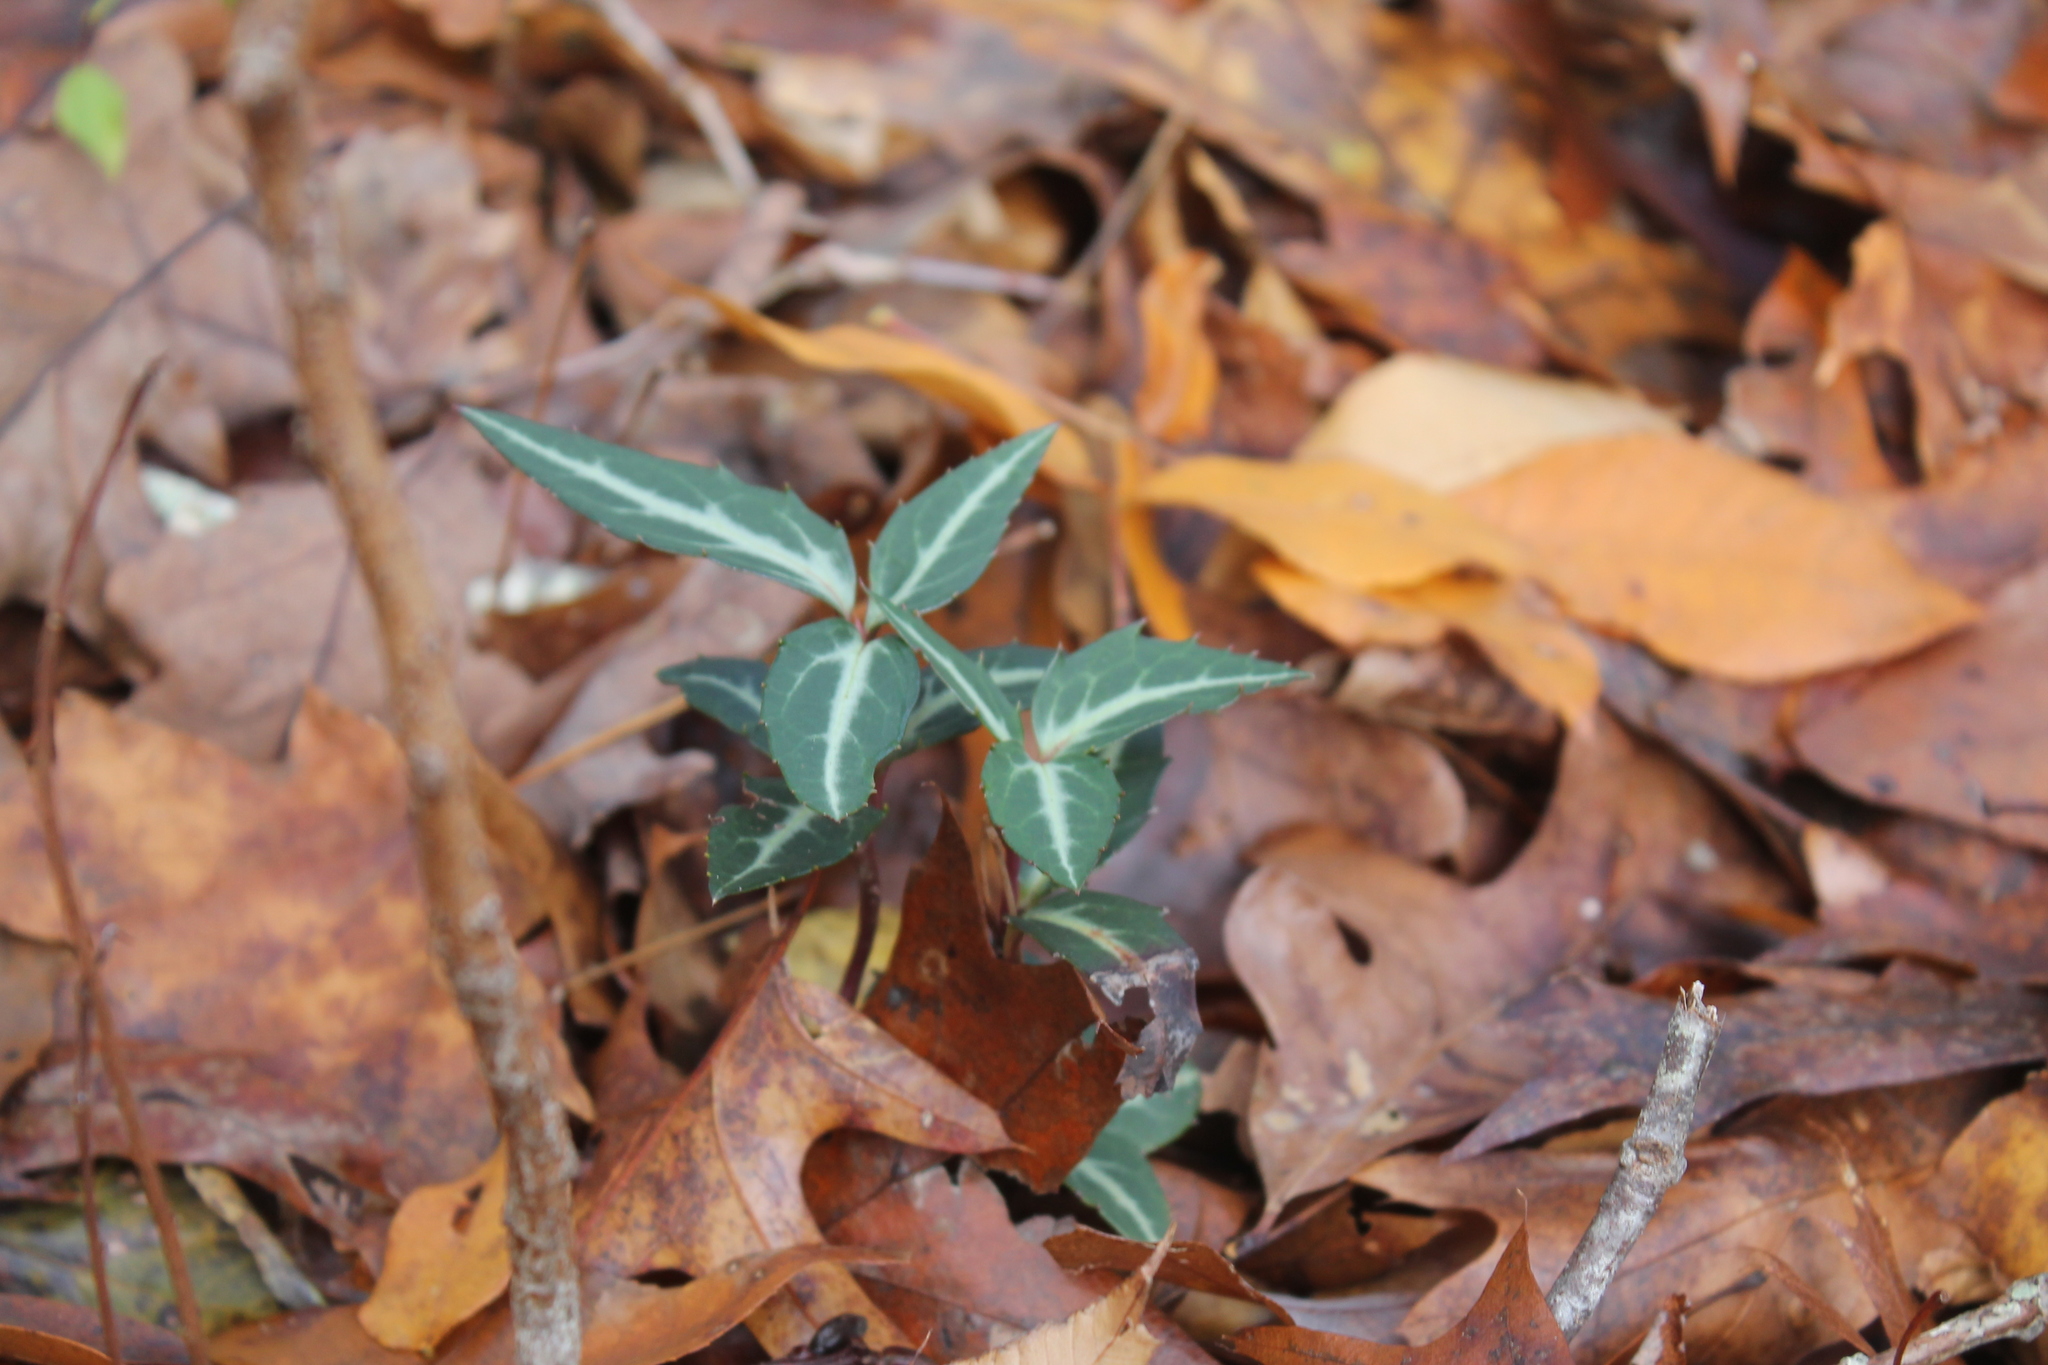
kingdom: Plantae
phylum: Tracheophyta
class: Magnoliopsida
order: Ericales
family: Ericaceae
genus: Chimaphila
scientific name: Chimaphila maculata
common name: Spotted pipsissewa
